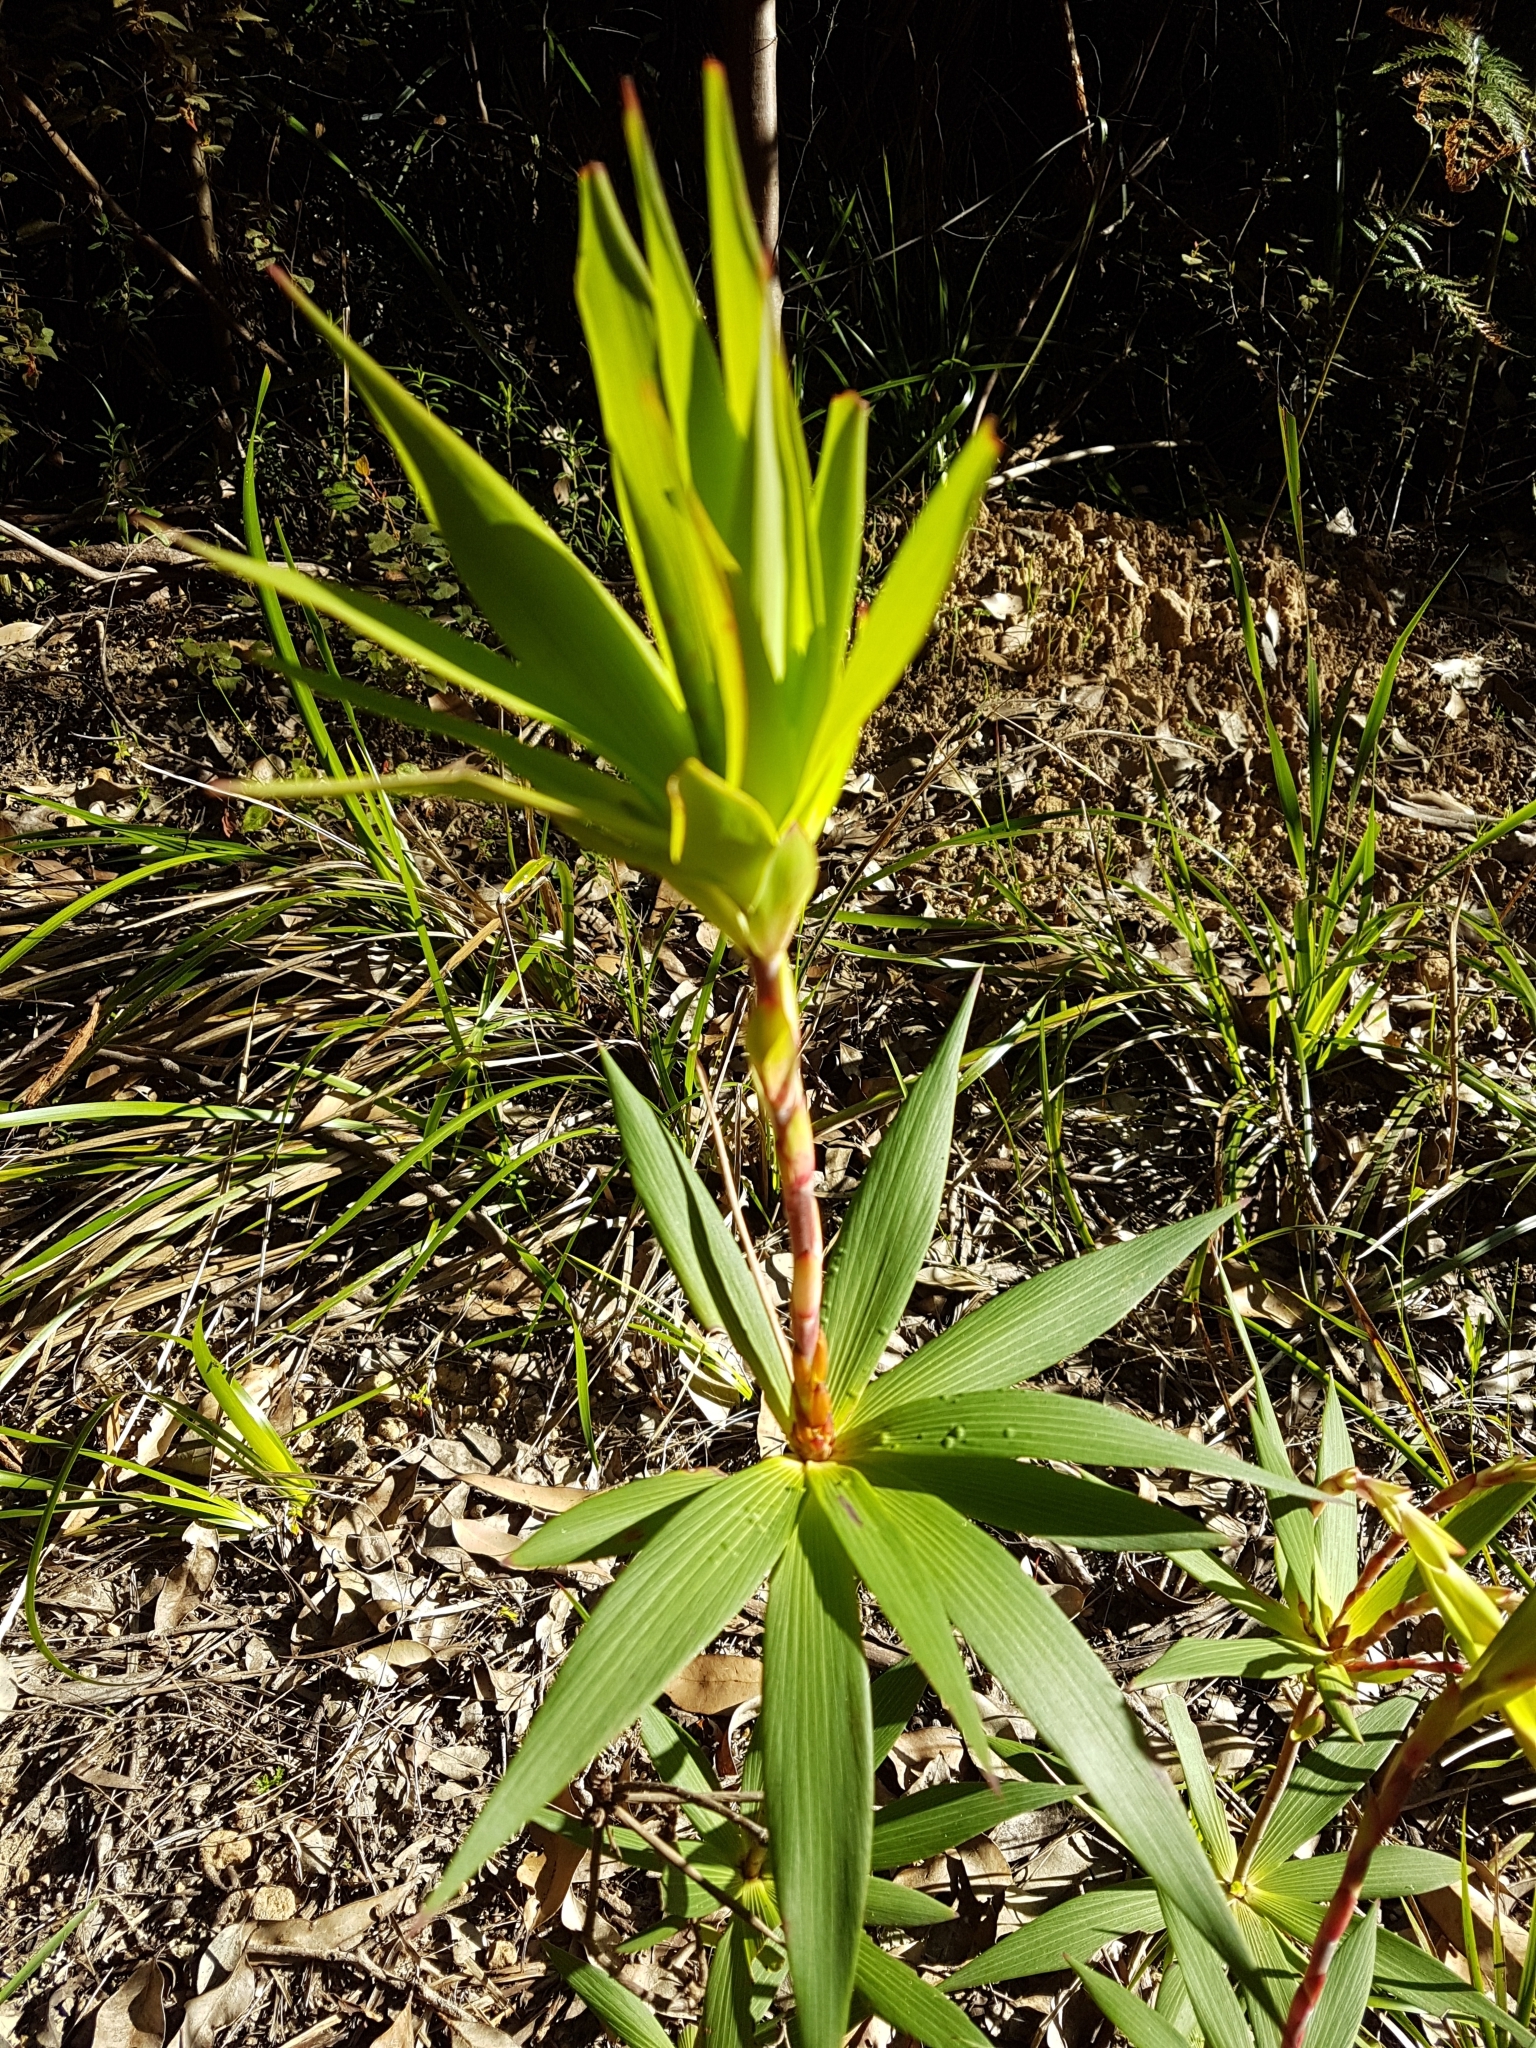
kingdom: Plantae
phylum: Tracheophyta
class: Magnoliopsida
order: Ericales
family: Ericaceae
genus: Leucopogon
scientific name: Leucopogon verticillatus
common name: Tasselshrub
